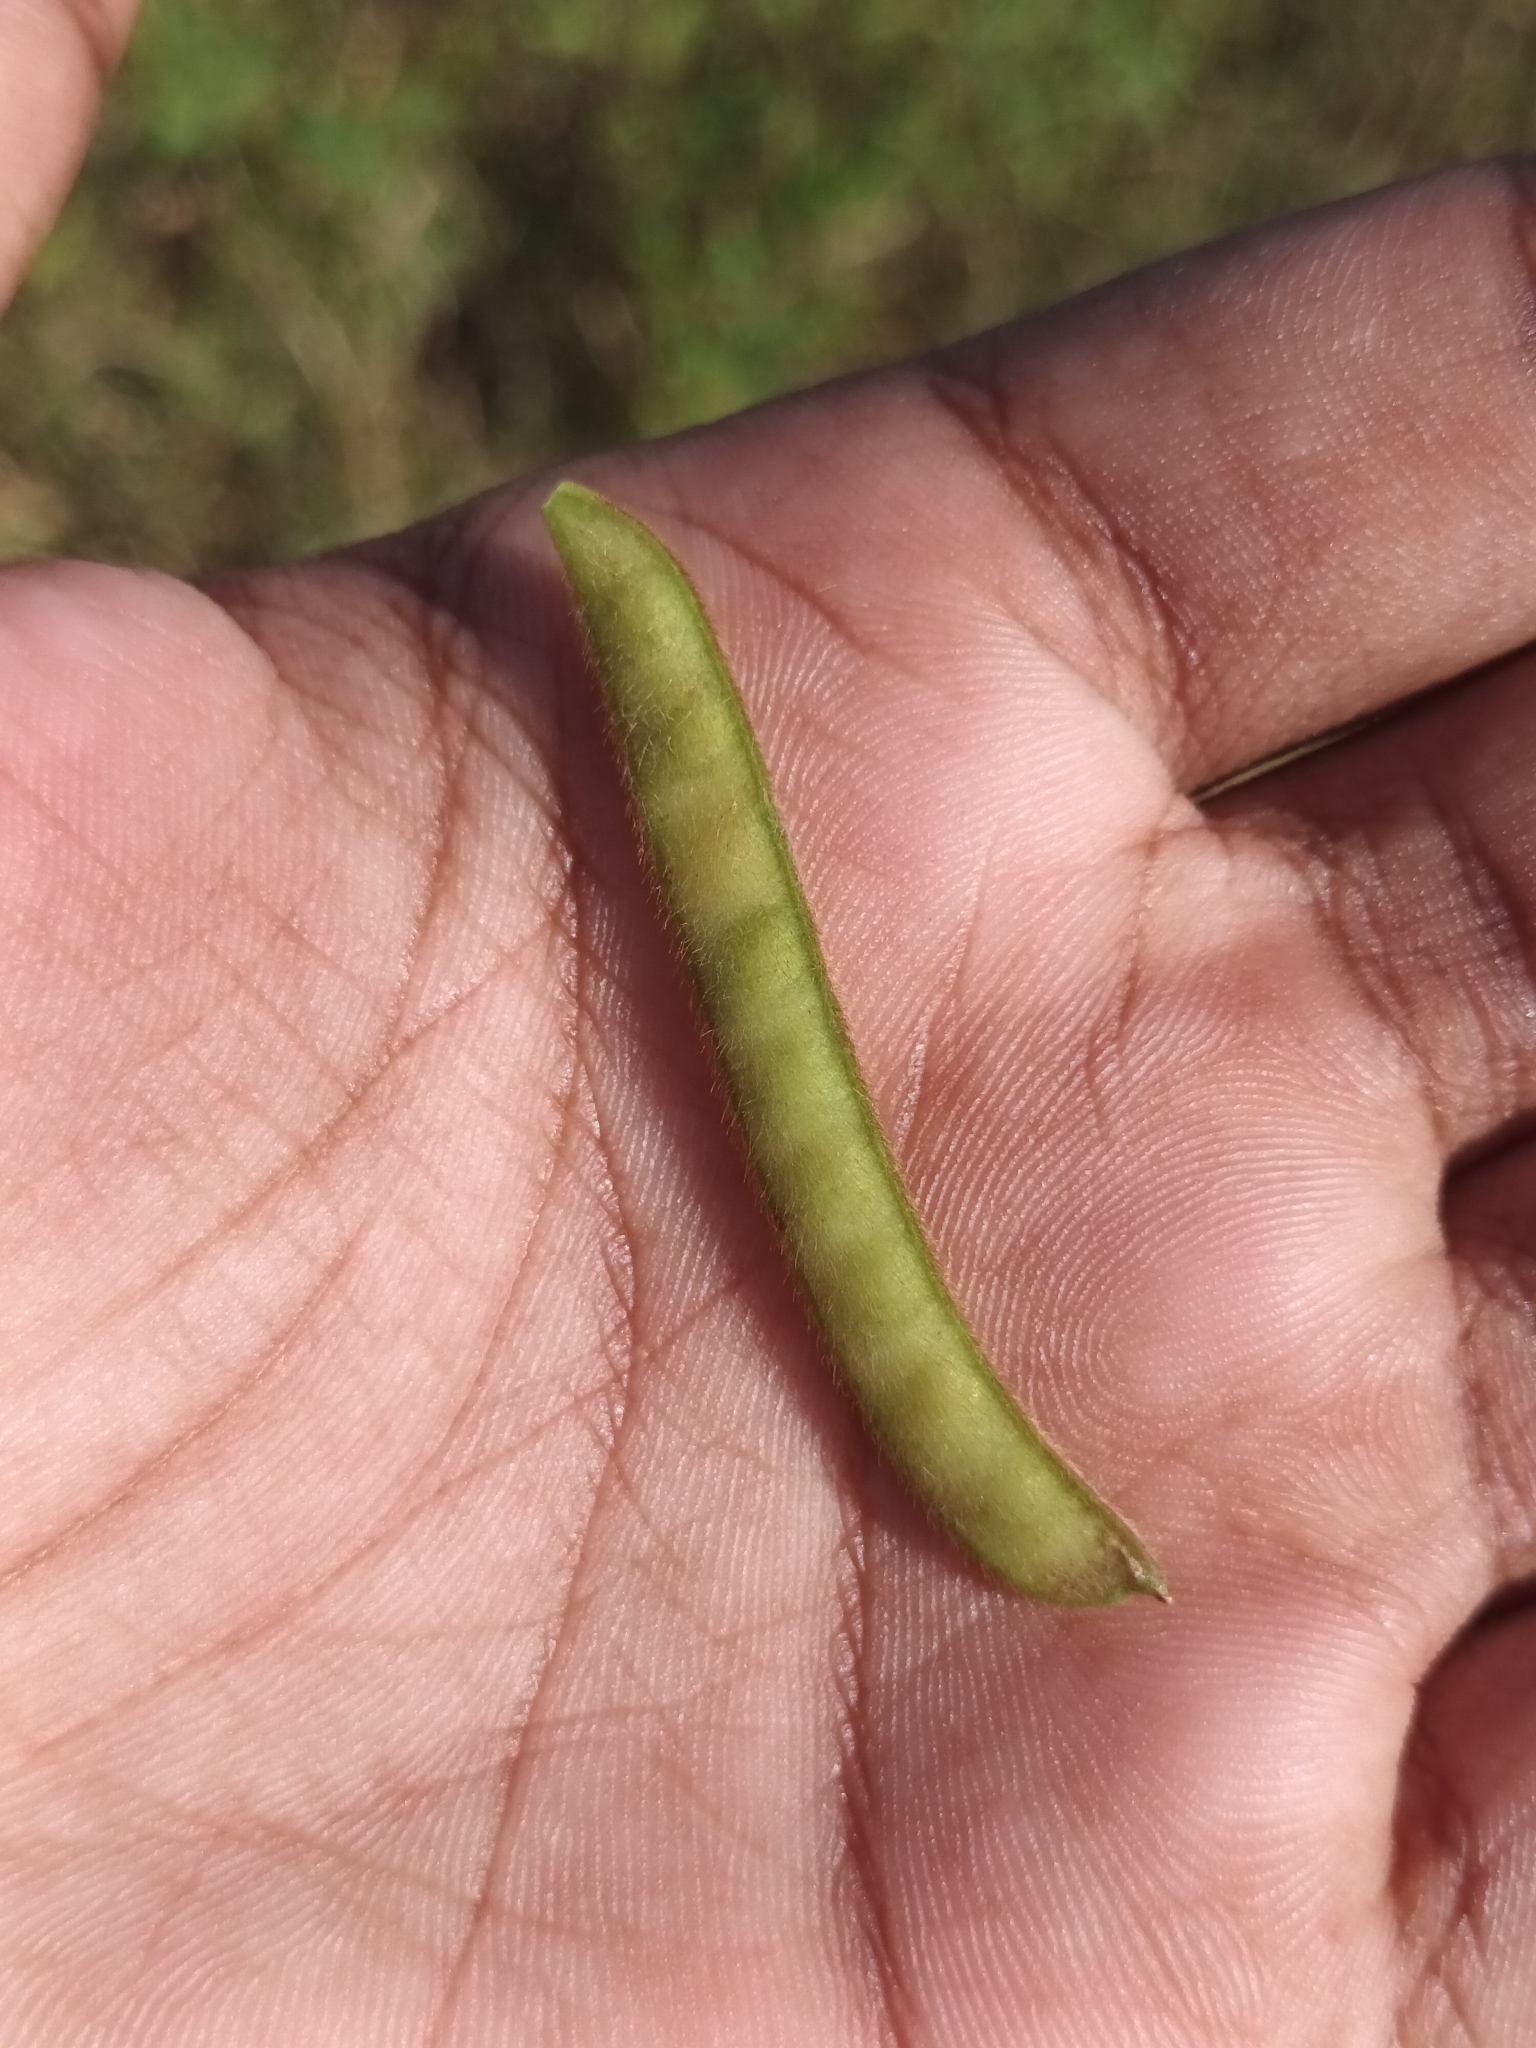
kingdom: Plantae
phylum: Tracheophyta
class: Magnoliopsida
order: Fabales
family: Fabaceae
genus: Tephrosia
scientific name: Tephrosia villosa
